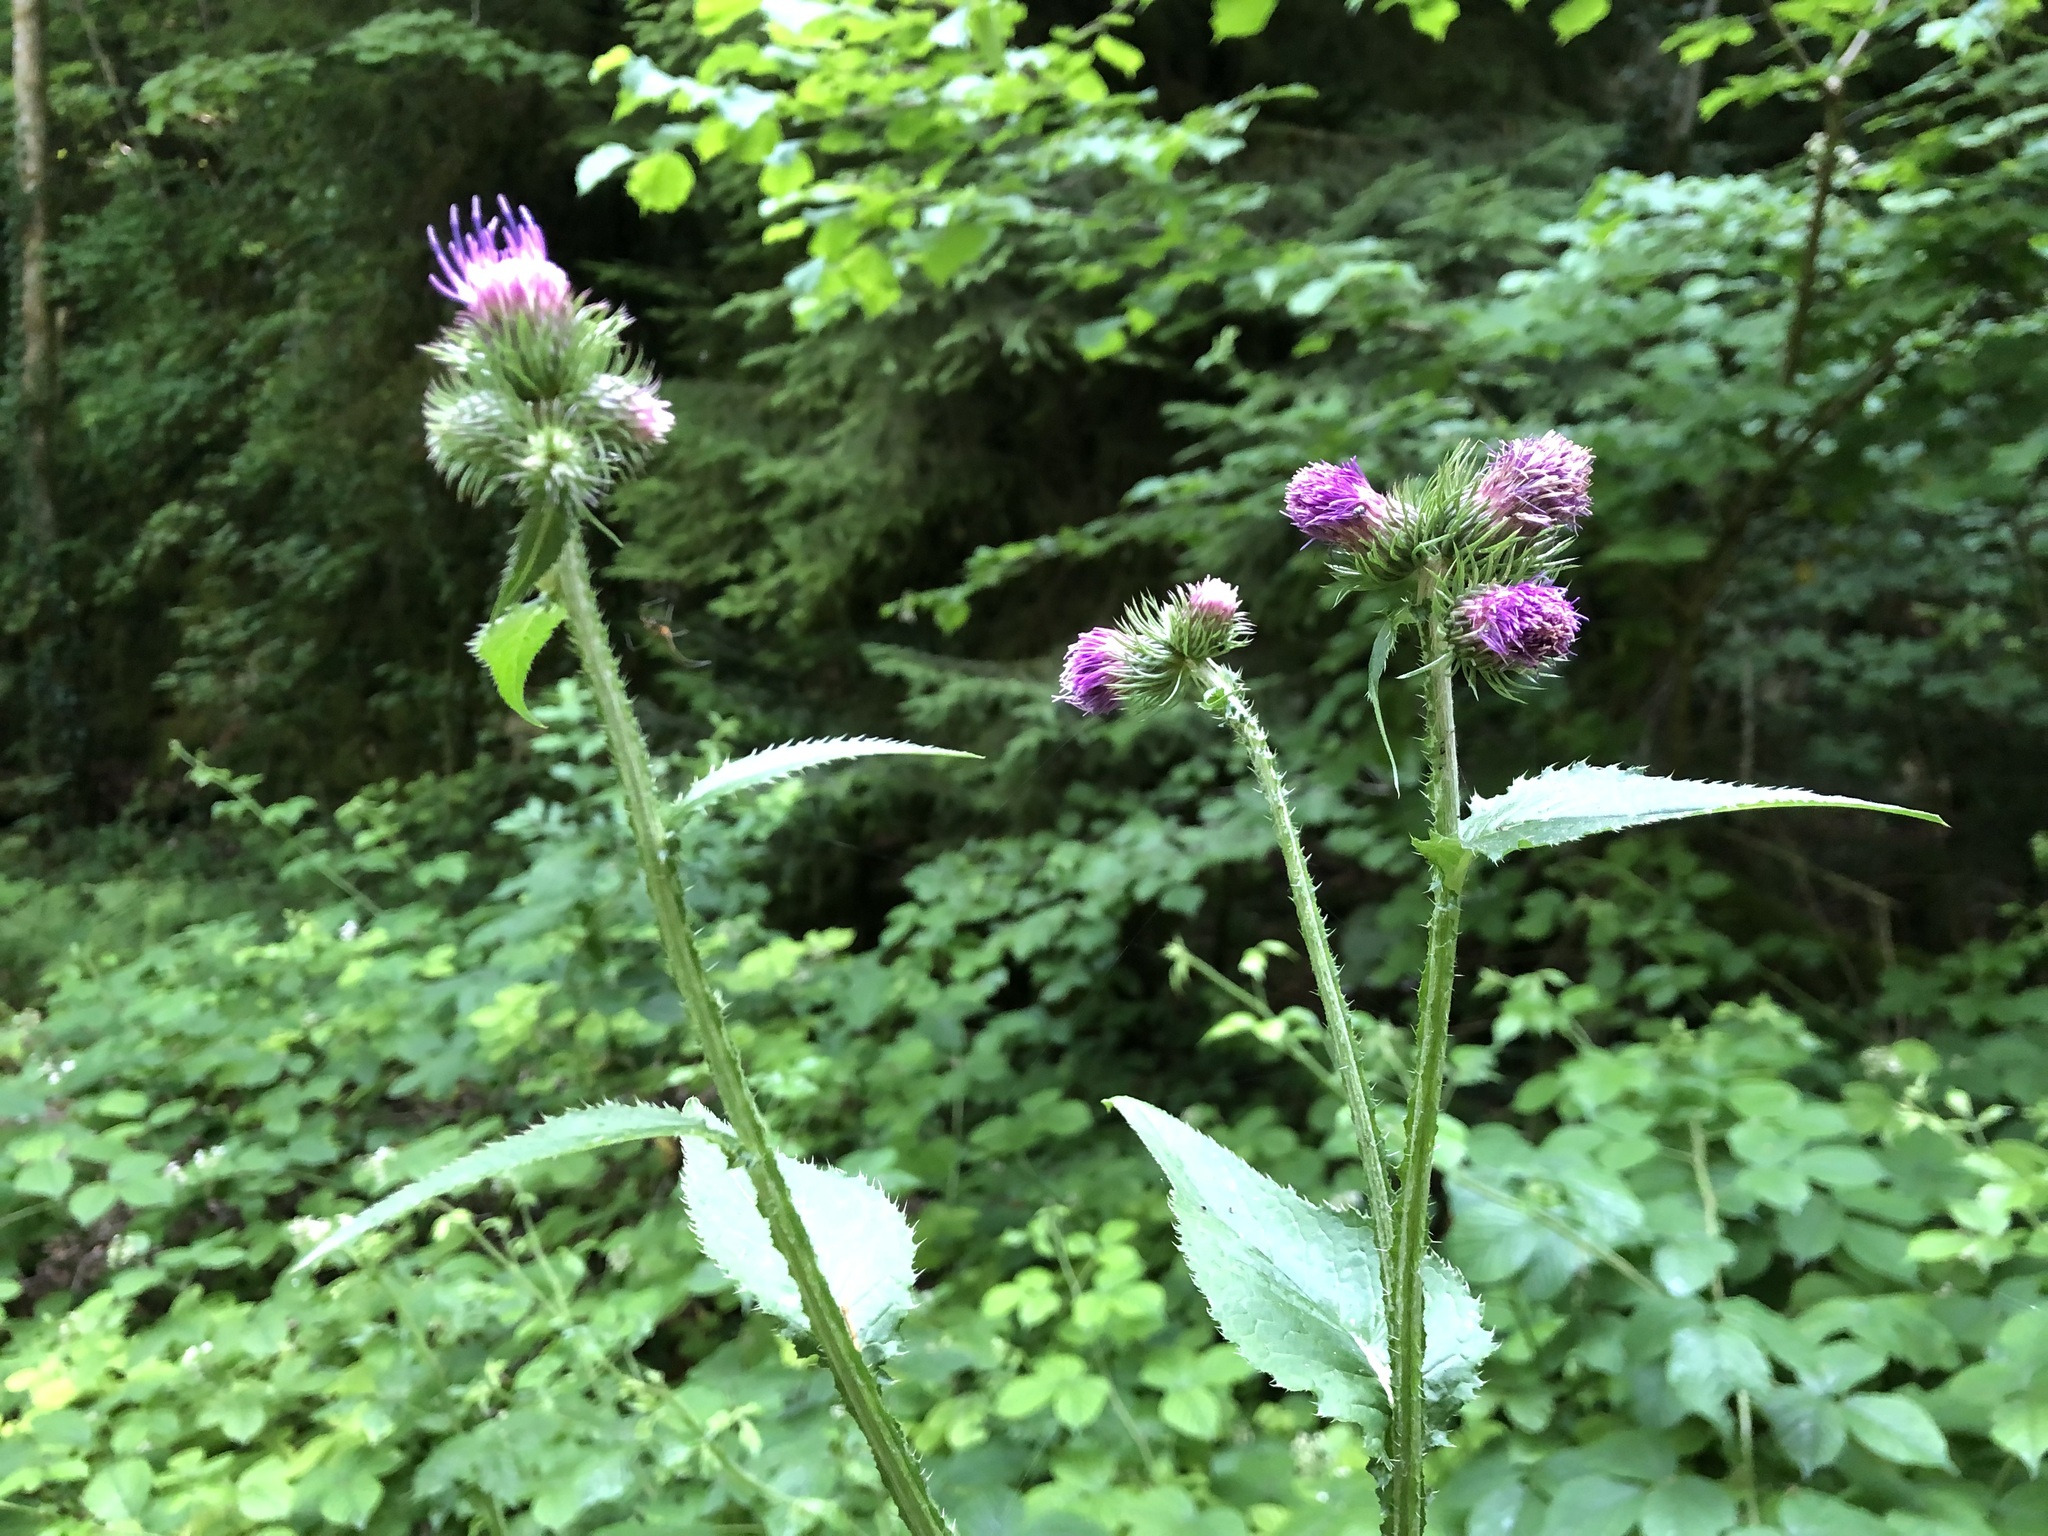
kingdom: Plantae
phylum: Tracheophyta
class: Magnoliopsida
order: Asterales
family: Asteraceae
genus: Carduus
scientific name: Carduus personata
